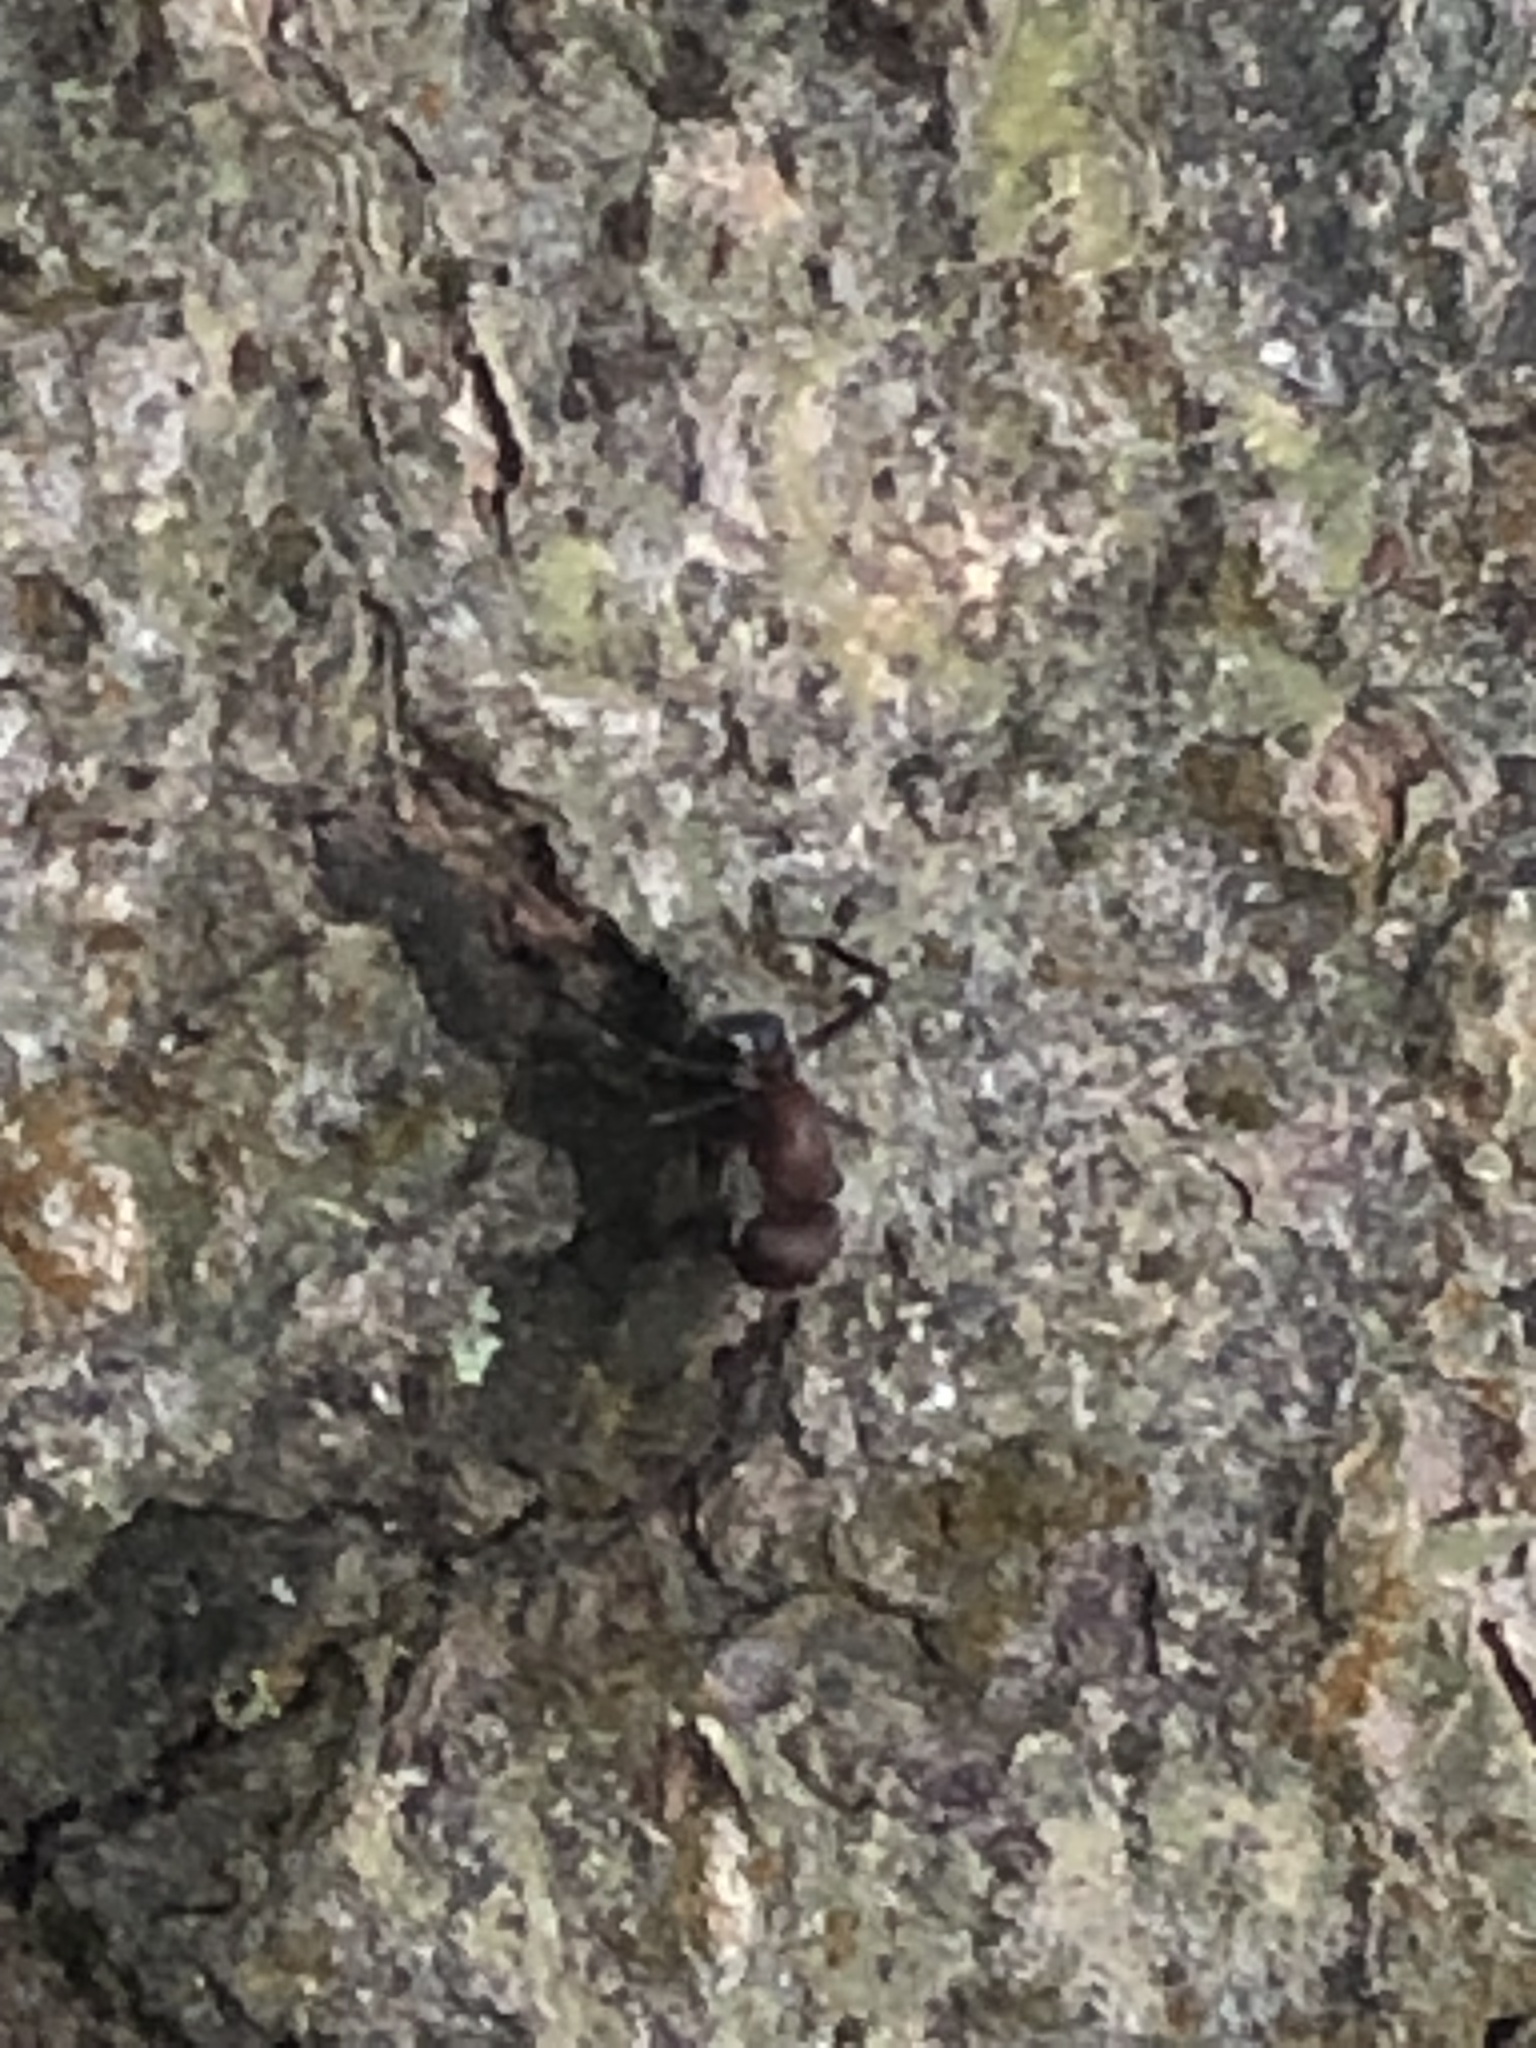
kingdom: Animalia
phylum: Arthropoda
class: Insecta
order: Hymenoptera
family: Formicidae
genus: Camponotus
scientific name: Camponotus planatus
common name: Compact carpenter ant
